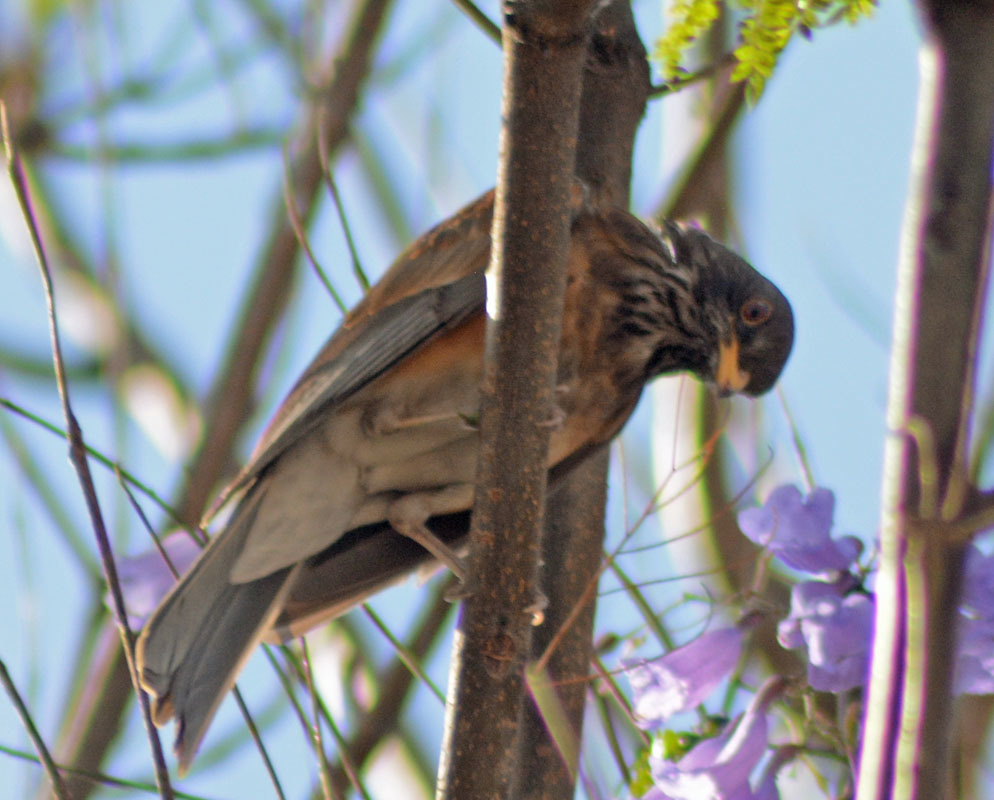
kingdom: Animalia
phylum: Chordata
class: Aves
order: Passeriformes
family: Turdidae
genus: Turdus
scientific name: Turdus rufopalliatus
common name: Rufous-backed robin
